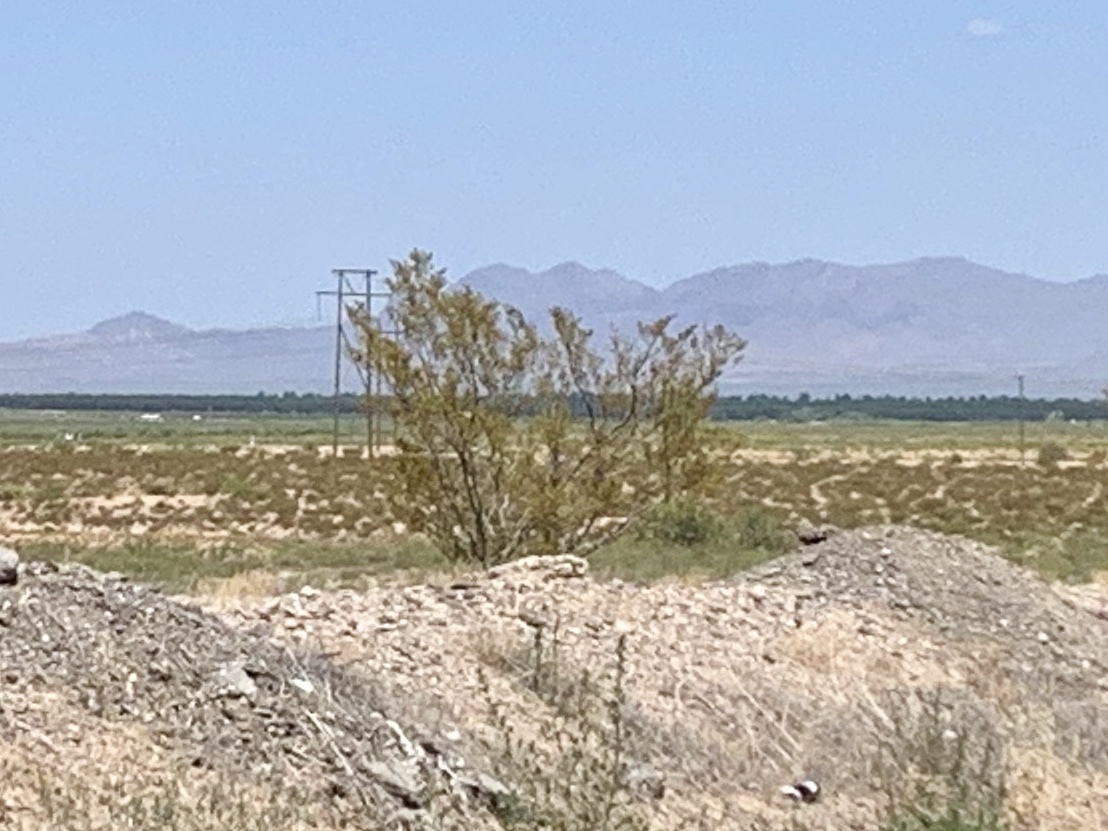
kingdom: Plantae
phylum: Tracheophyta
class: Magnoliopsida
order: Zygophyllales
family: Zygophyllaceae
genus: Larrea
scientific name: Larrea tridentata
